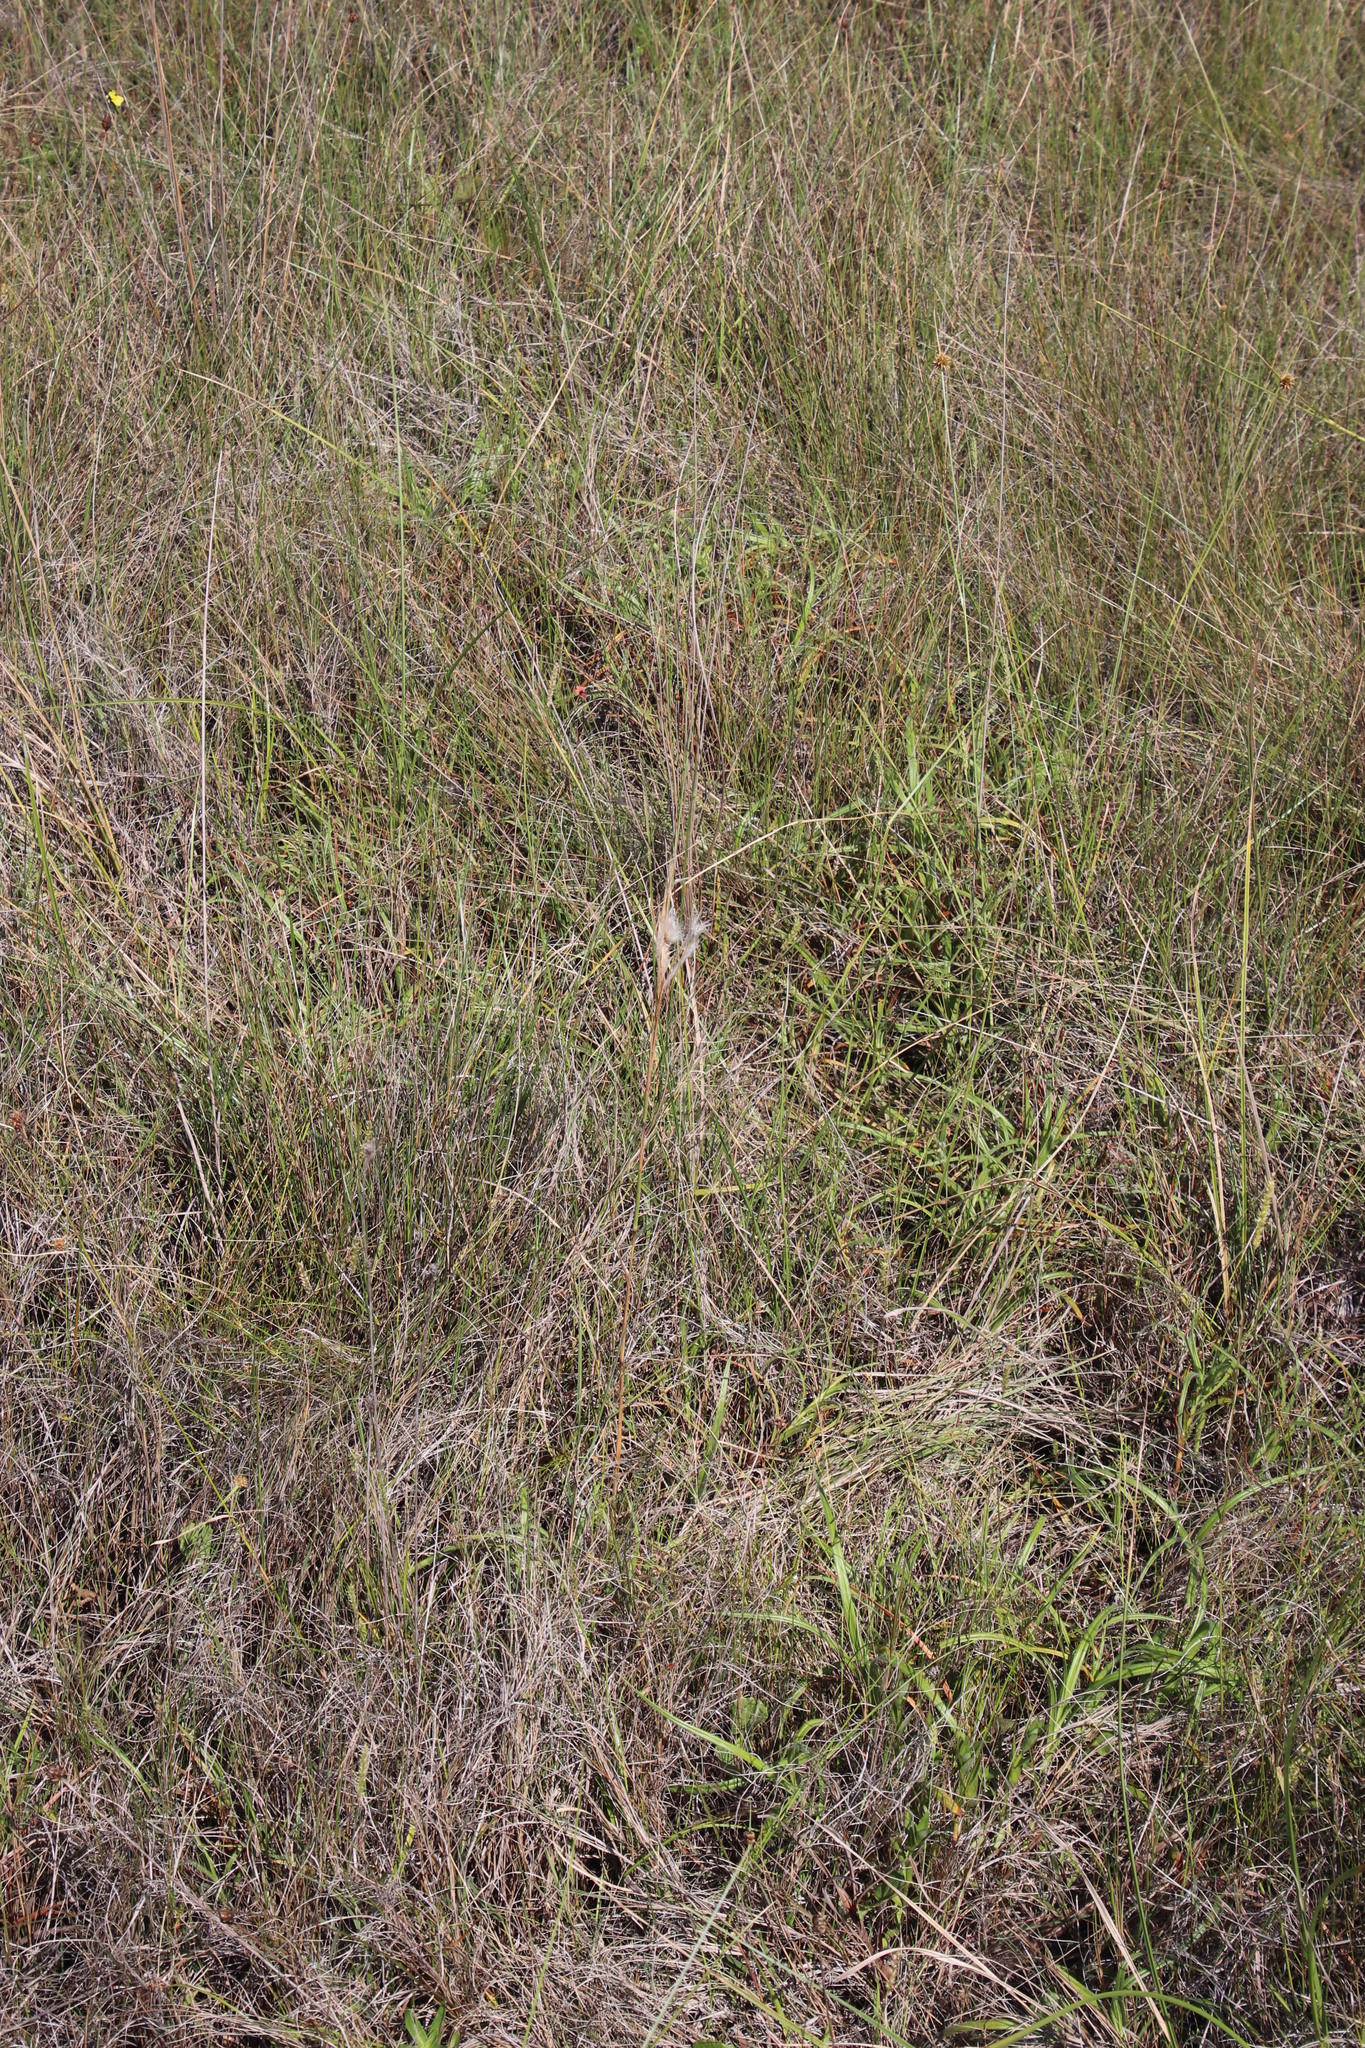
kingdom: Plantae
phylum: Tracheophyta
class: Liliopsida
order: Poales
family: Poaceae
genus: Andropogon
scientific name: Andropogon eucomus
